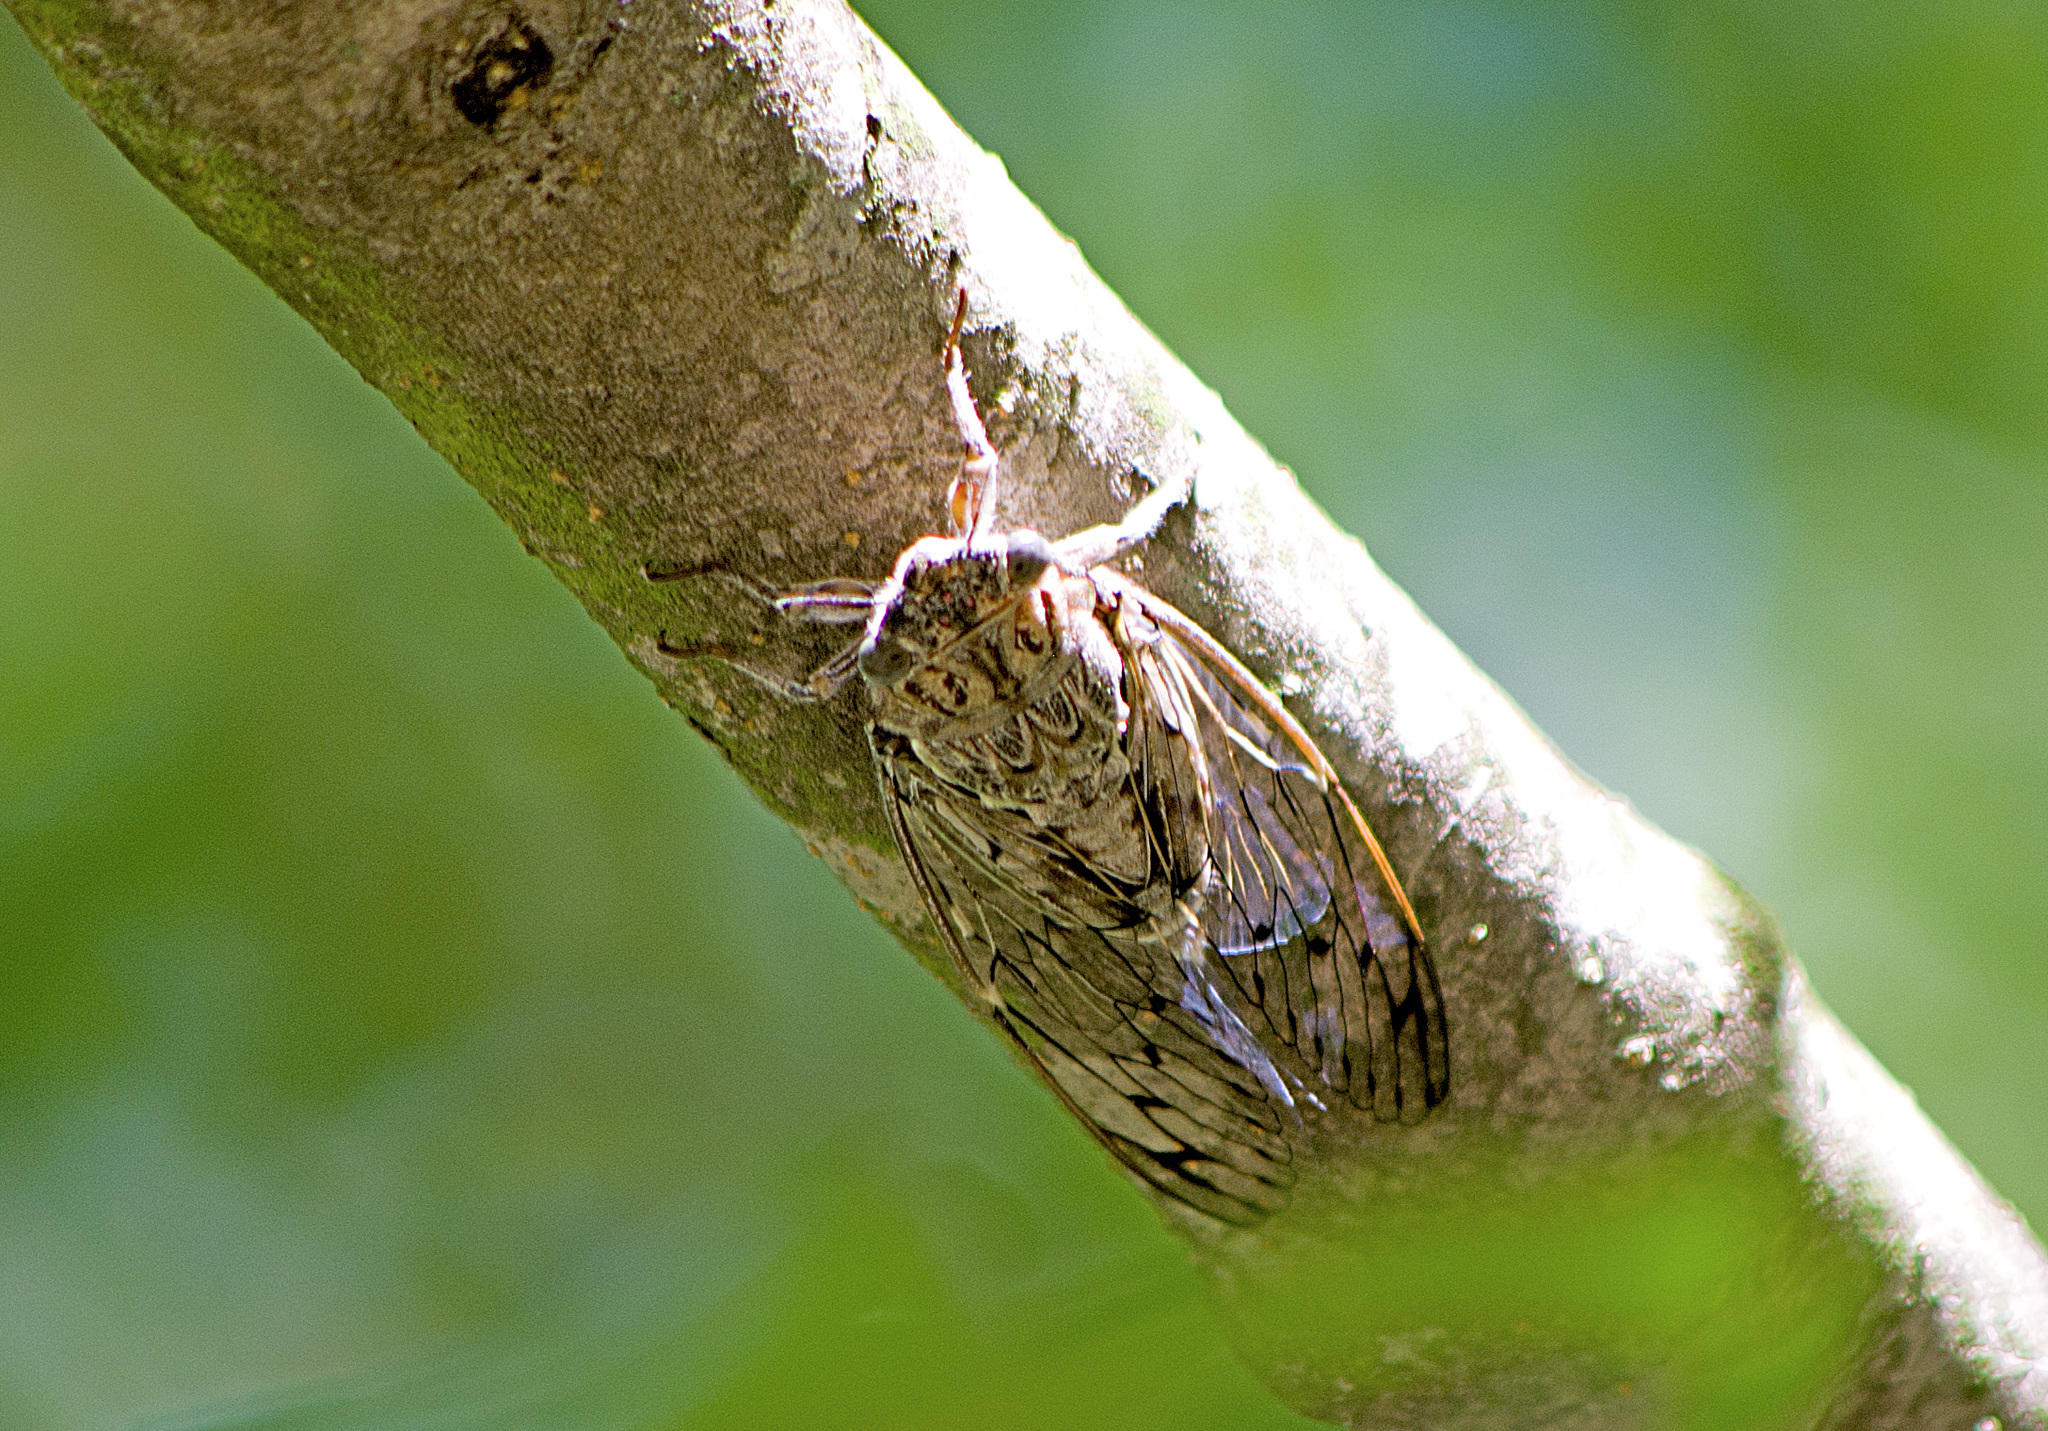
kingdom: Animalia
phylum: Arthropoda
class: Insecta
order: Hemiptera
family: Cicadidae
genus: Cicada
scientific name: Cicada orni
